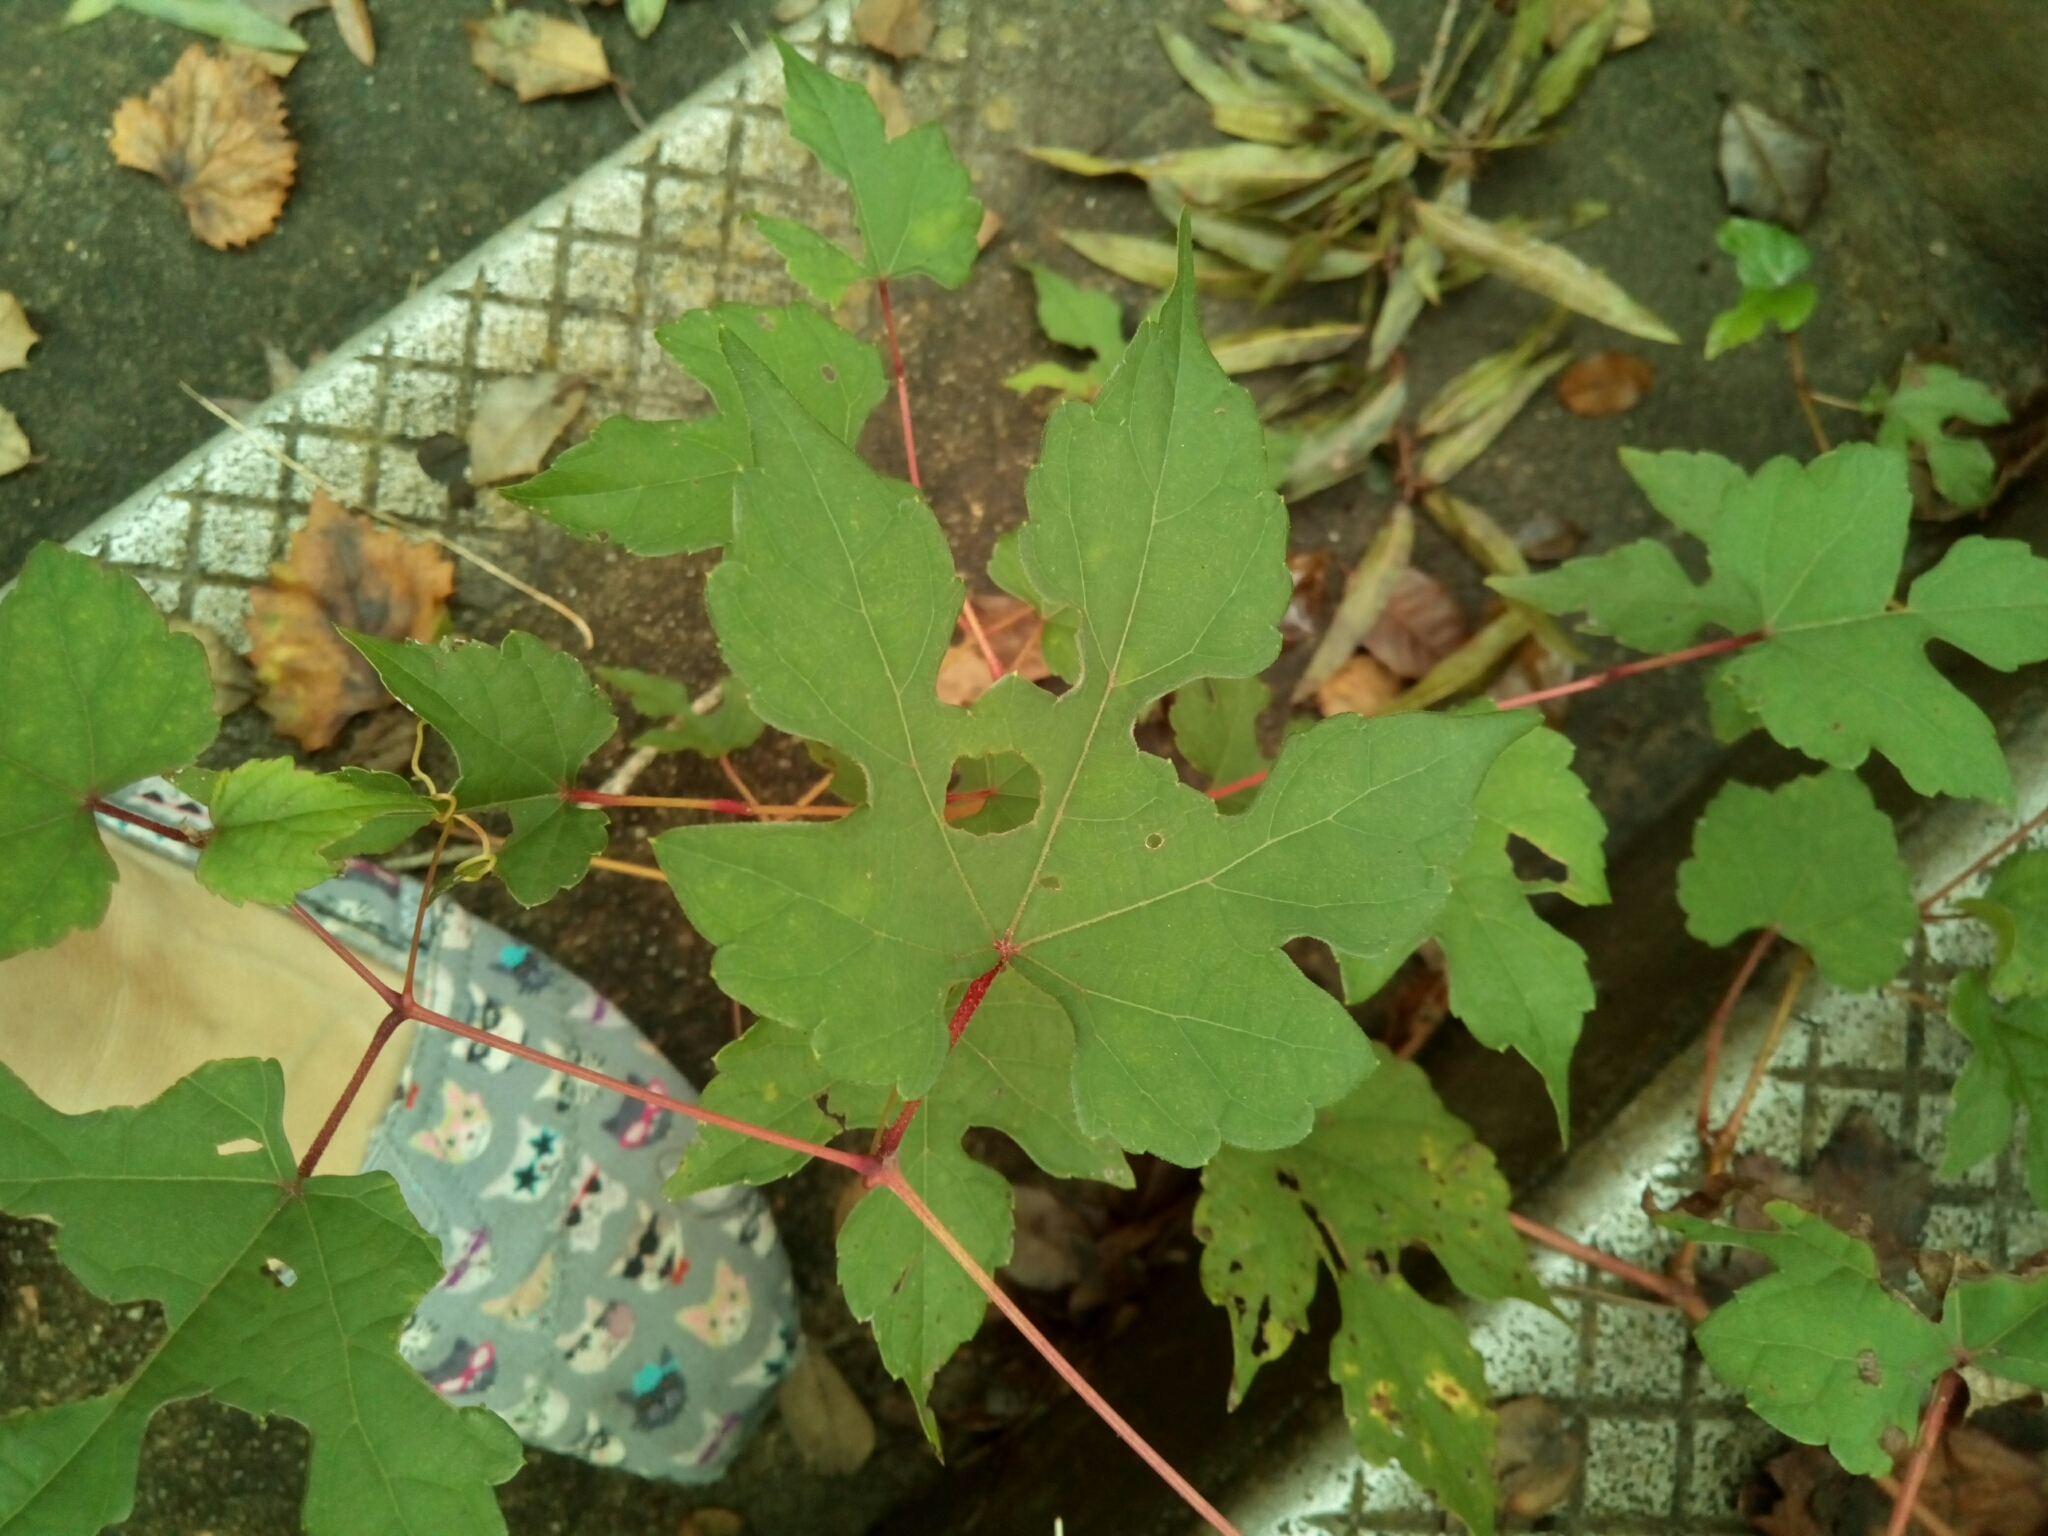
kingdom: Plantae
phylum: Tracheophyta
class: Magnoliopsida
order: Vitales
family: Vitaceae
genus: Ampelopsis
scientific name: Ampelopsis glandulosa
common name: Amur peppervine
